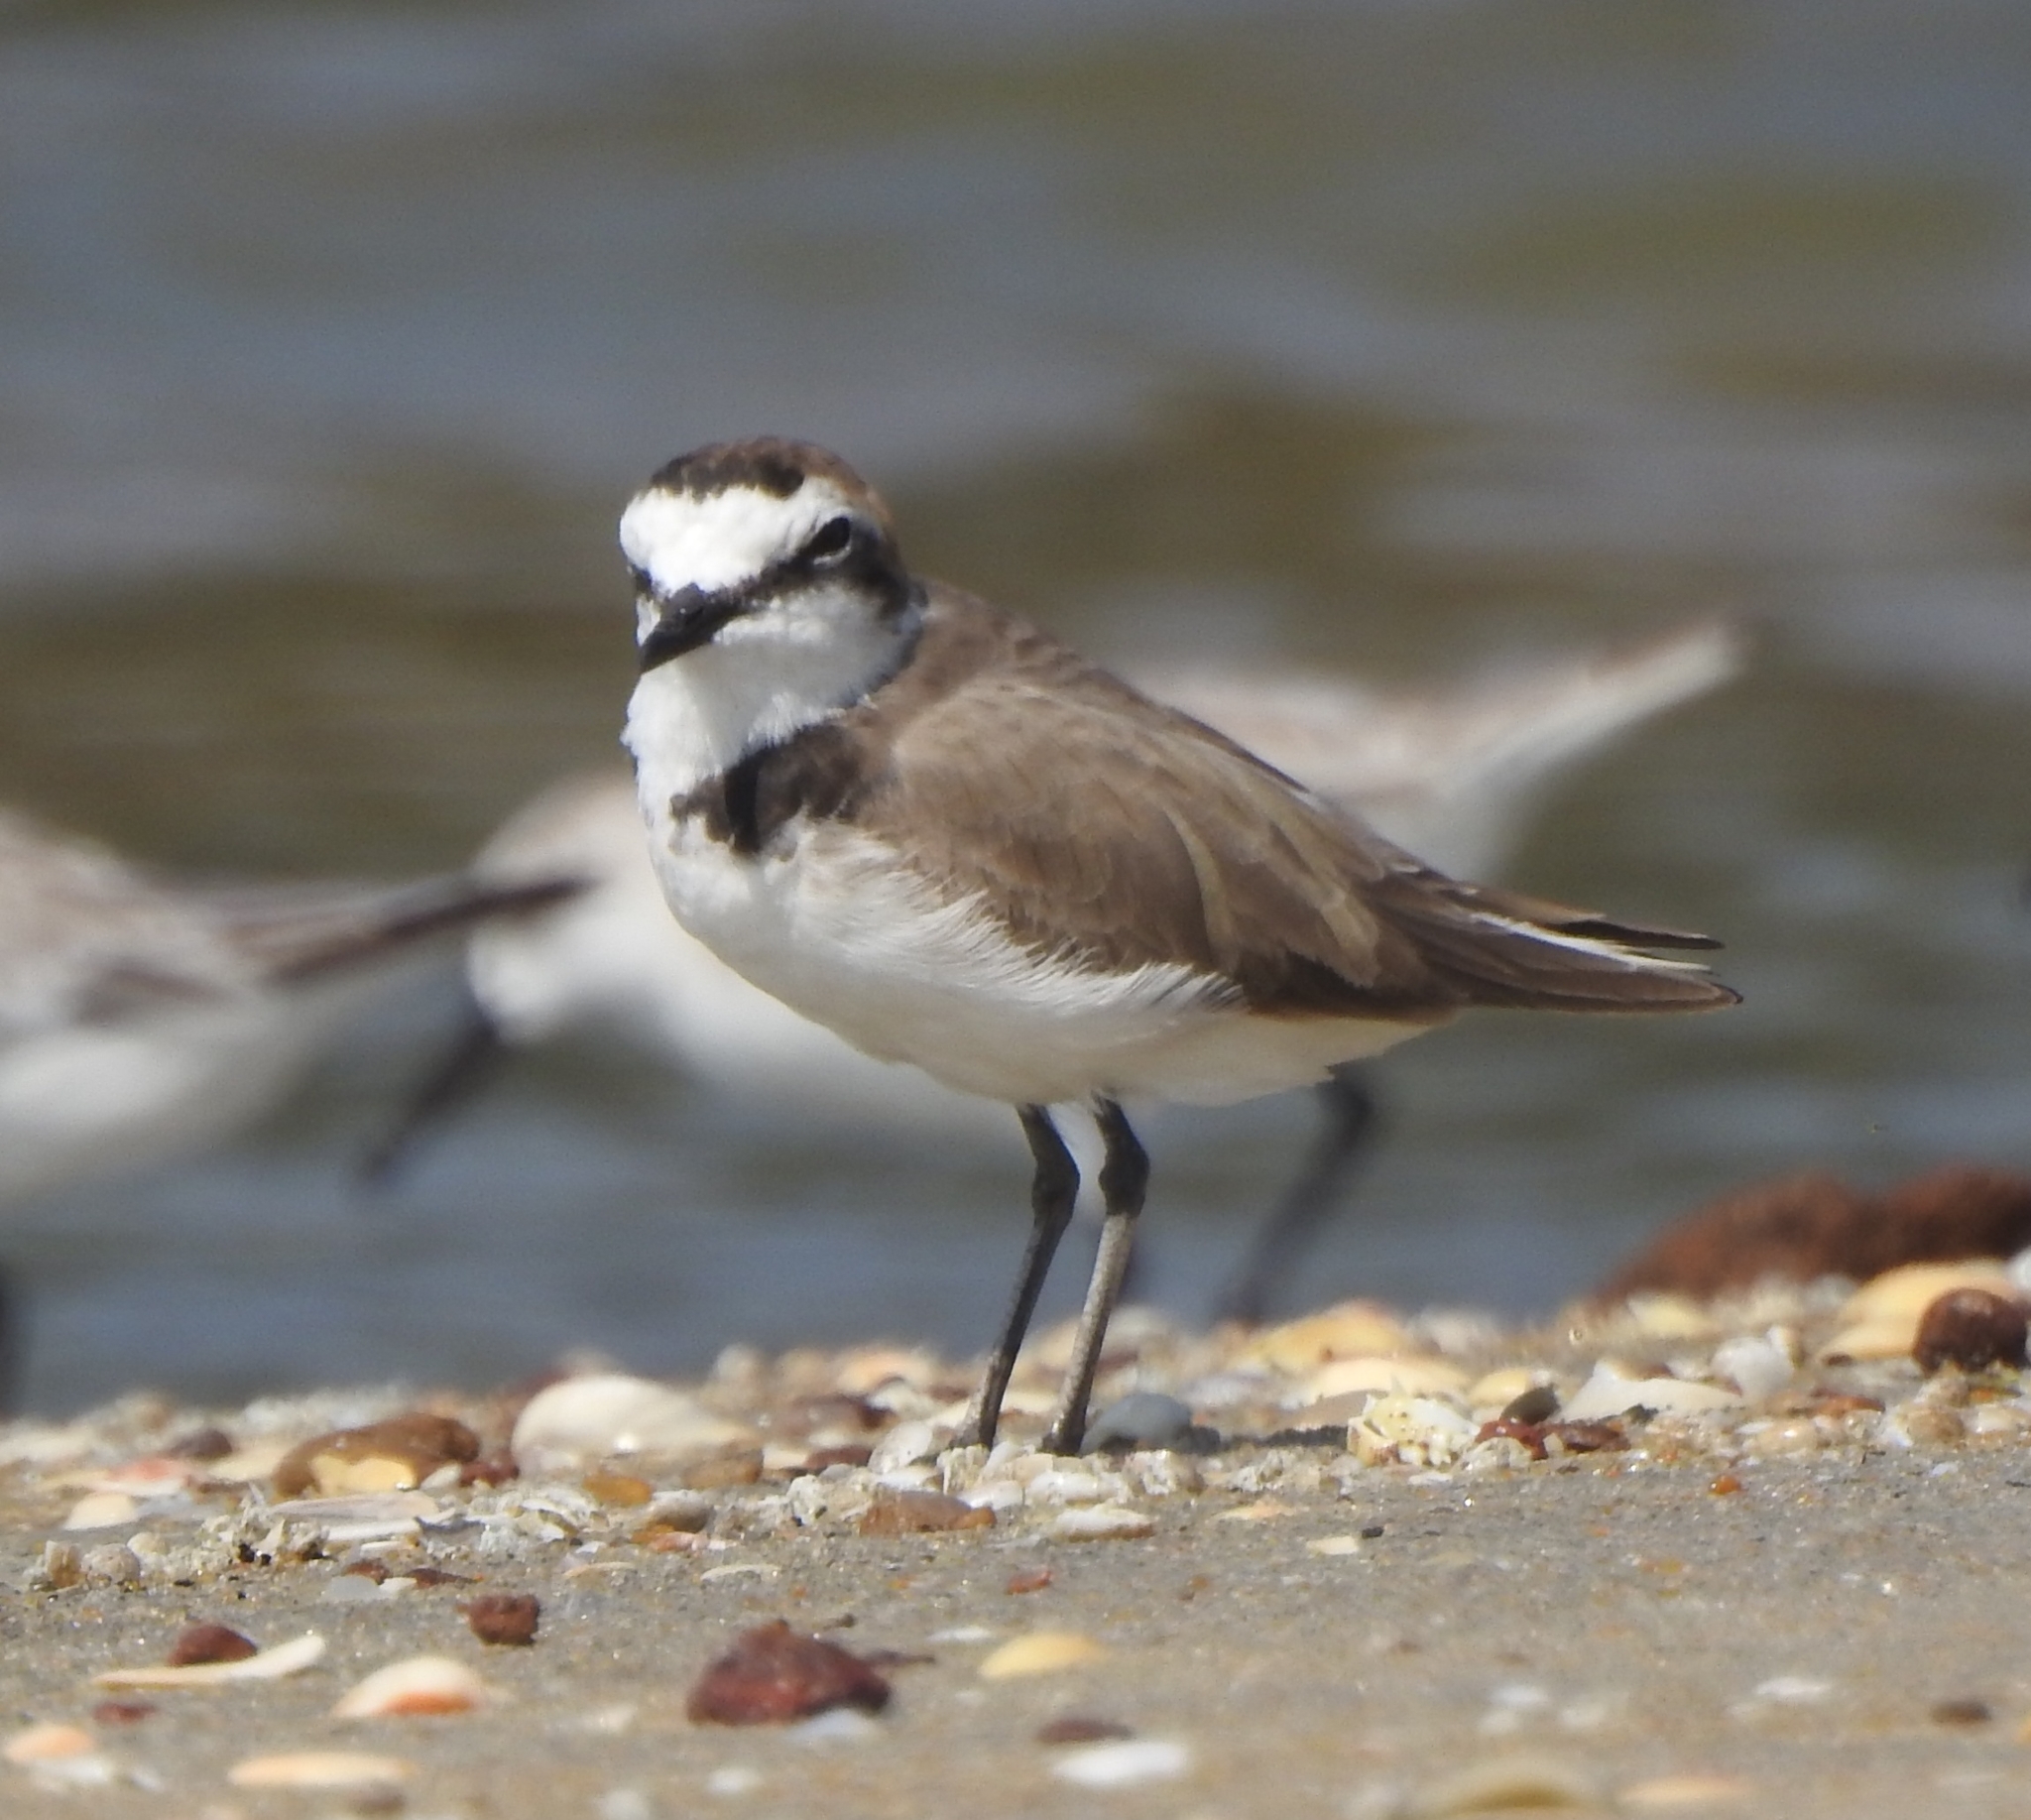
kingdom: Animalia
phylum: Chordata
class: Aves
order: Charadriiformes
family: Charadriidae
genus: Charadrius
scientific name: Charadrius alexandrinus
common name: Kentish plover
